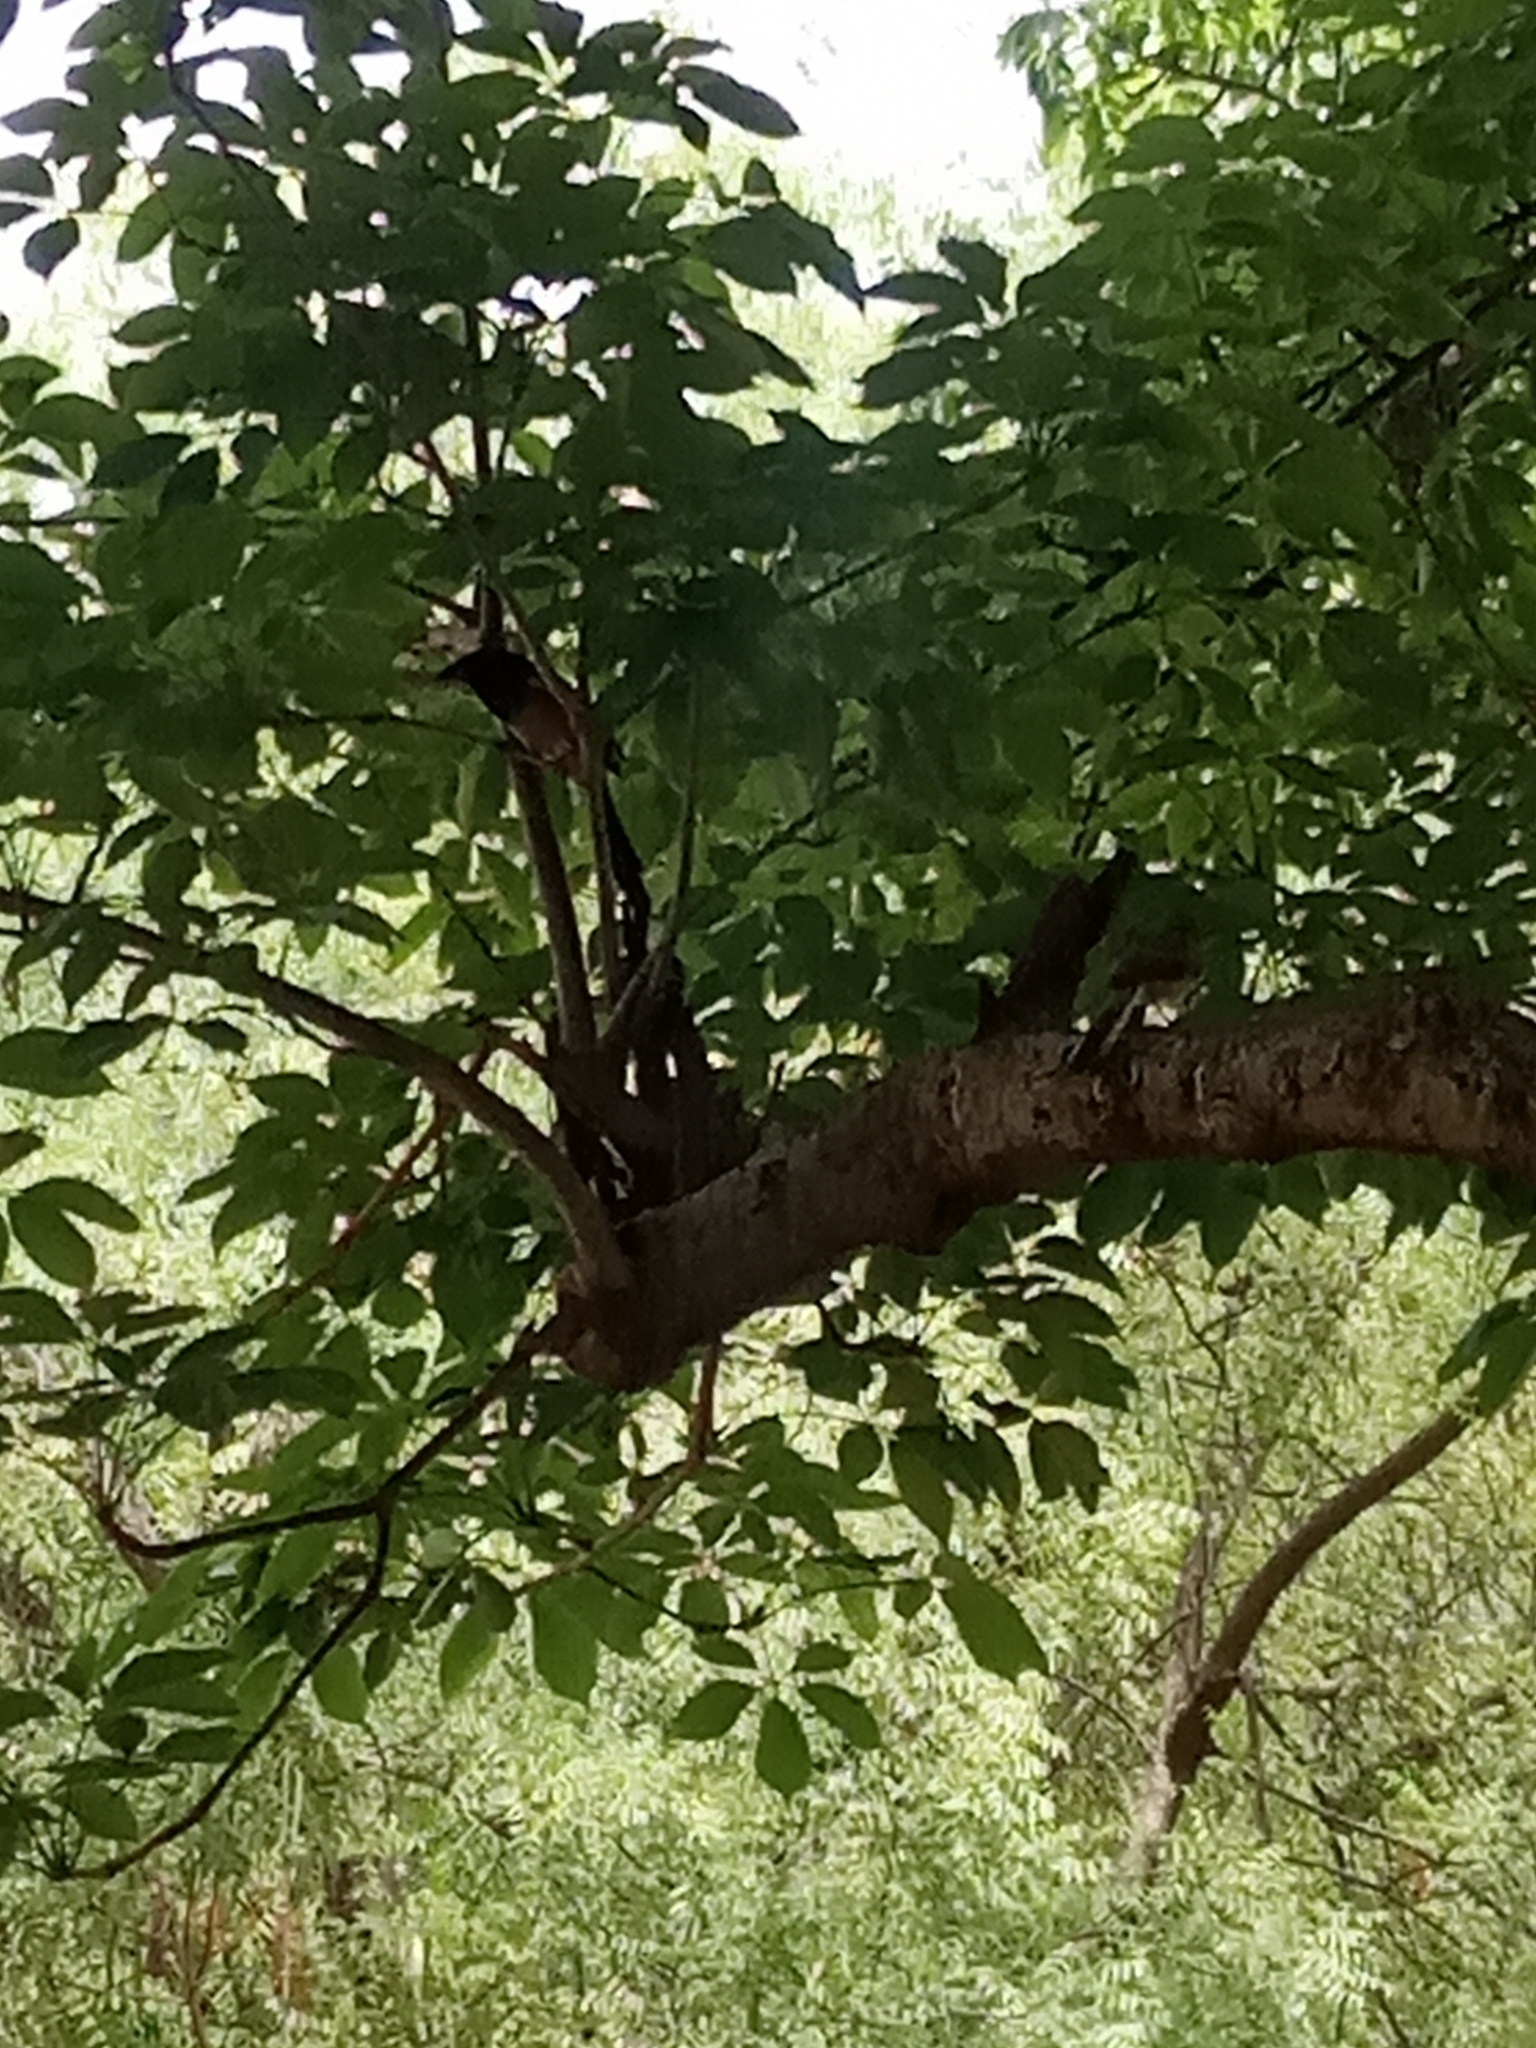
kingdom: Animalia
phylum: Chordata
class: Aves
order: Passeriformes
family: Corvidae
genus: Dendrocitta
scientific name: Dendrocitta vagabunda
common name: Rufous treepie
